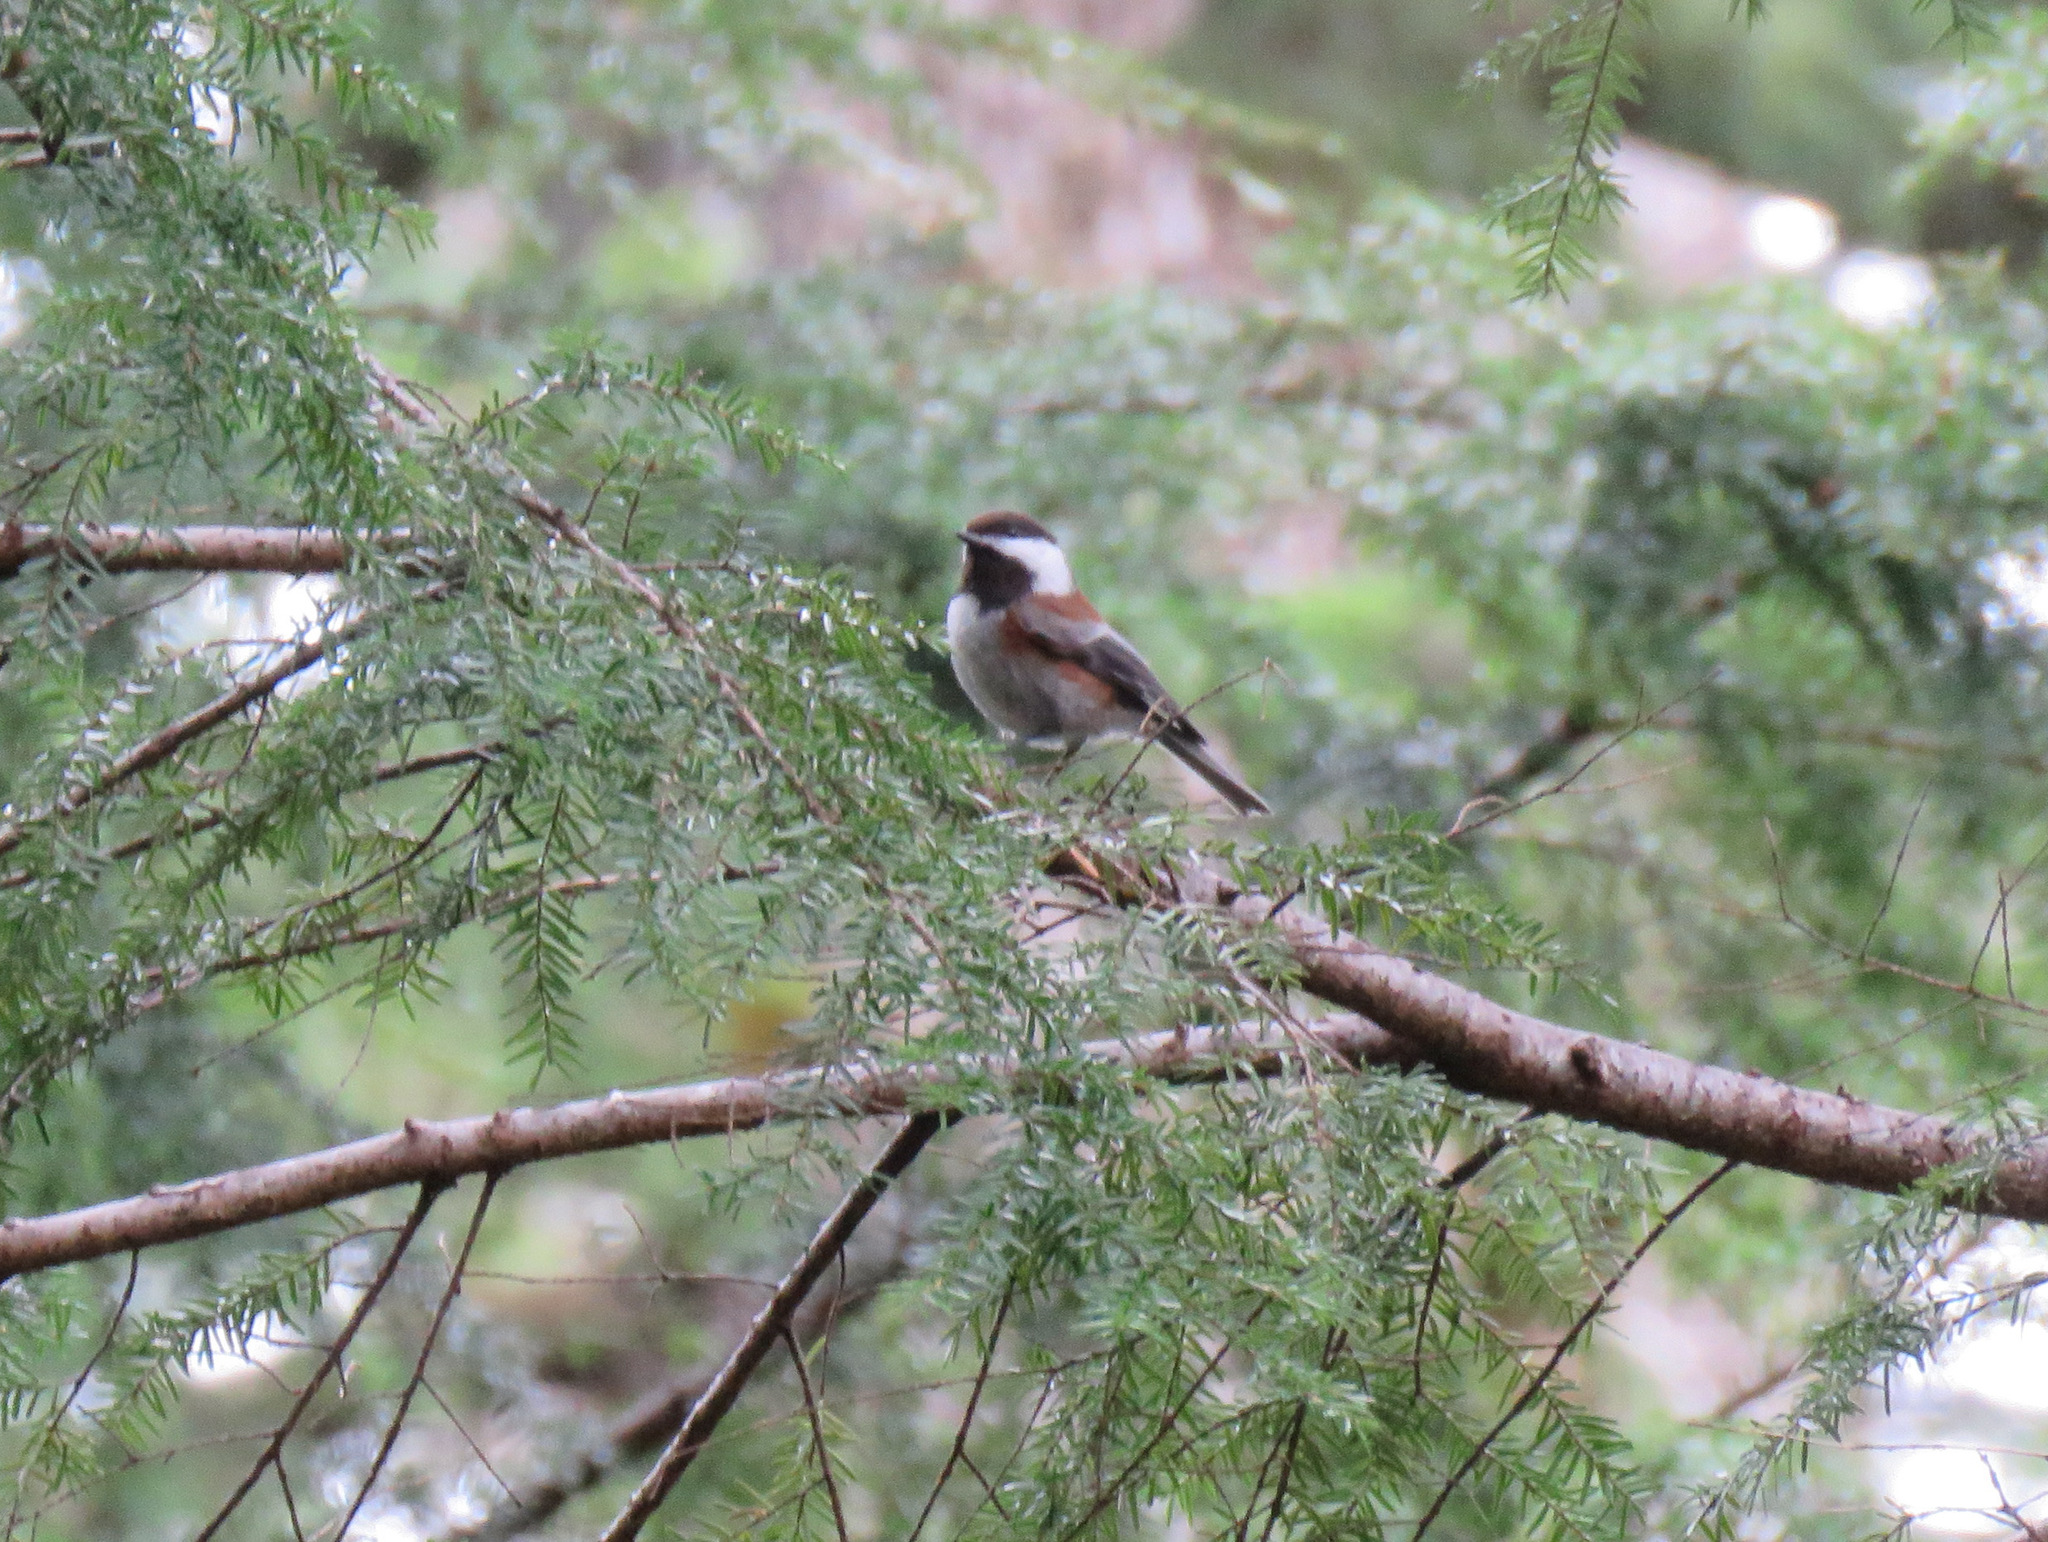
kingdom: Animalia
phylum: Chordata
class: Aves
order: Passeriformes
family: Paridae
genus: Poecile
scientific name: Poecile rufescens
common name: Chestnut-backed chickadee
